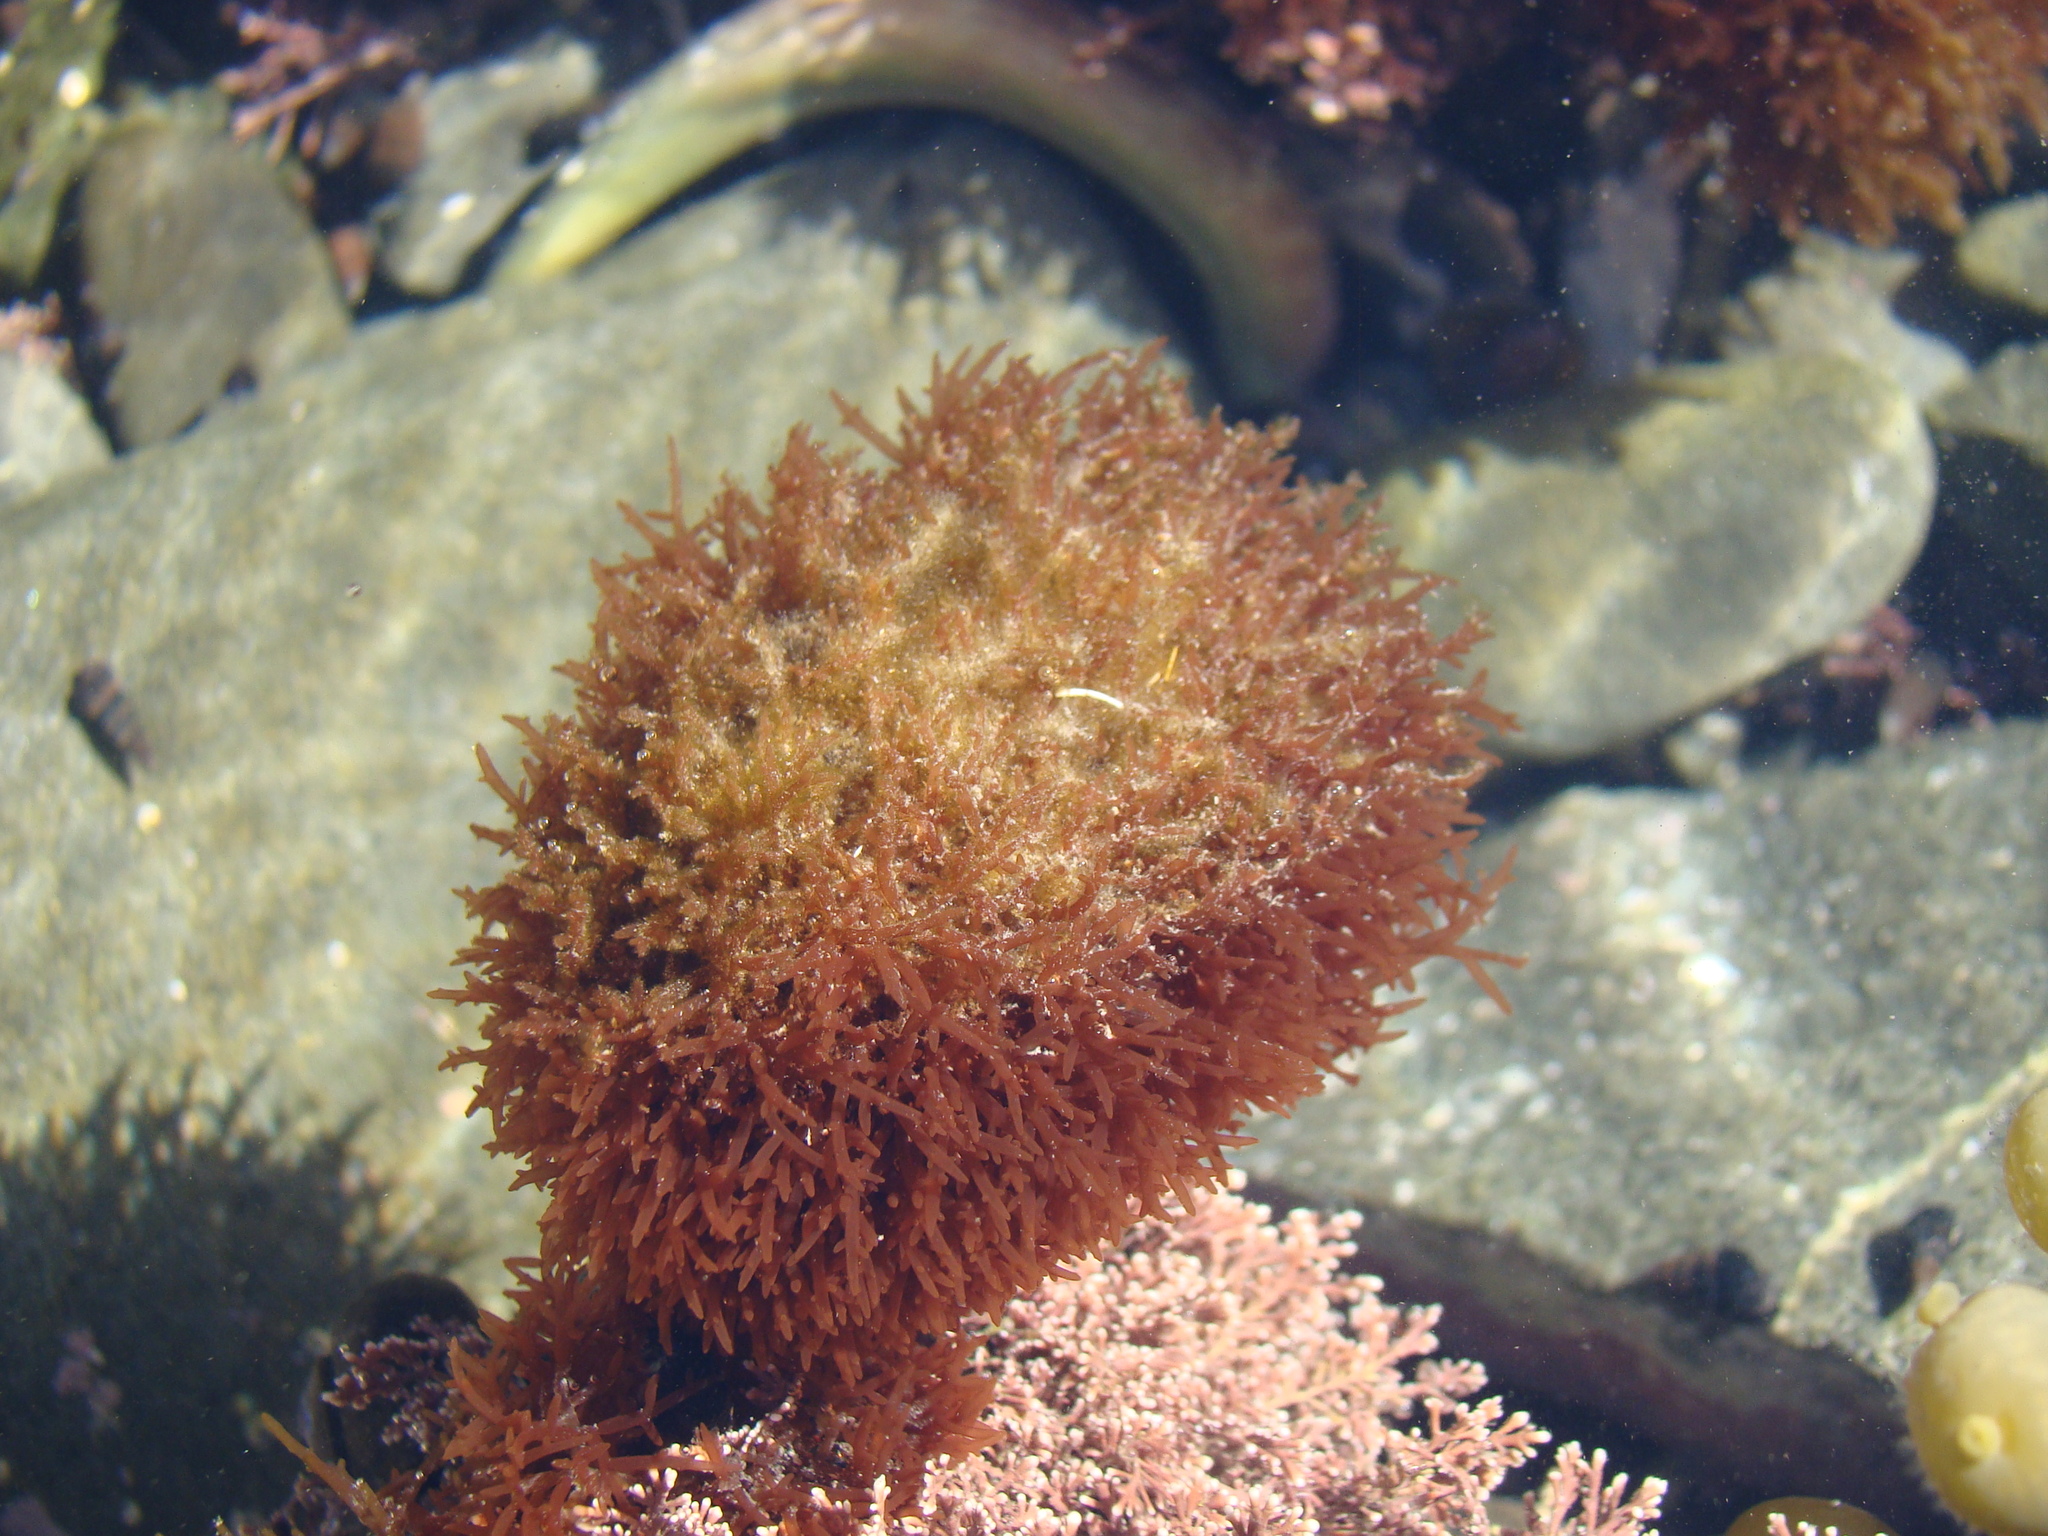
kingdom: Plantae
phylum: Rhodophyta
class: Florideophyceae
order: Rhodymeniales
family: Lomentariaceae
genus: Lomentaria
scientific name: Lomentaria caespitosa
